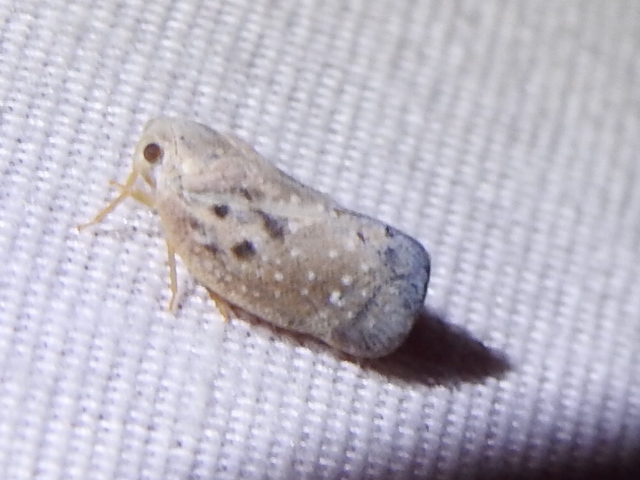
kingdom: Animalia
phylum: Arthropoda
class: Insecta
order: Hemiptera
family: Flatidae
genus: Metcalfa
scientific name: Metcalfa pruinosa
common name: Citrus flatid planthopper
